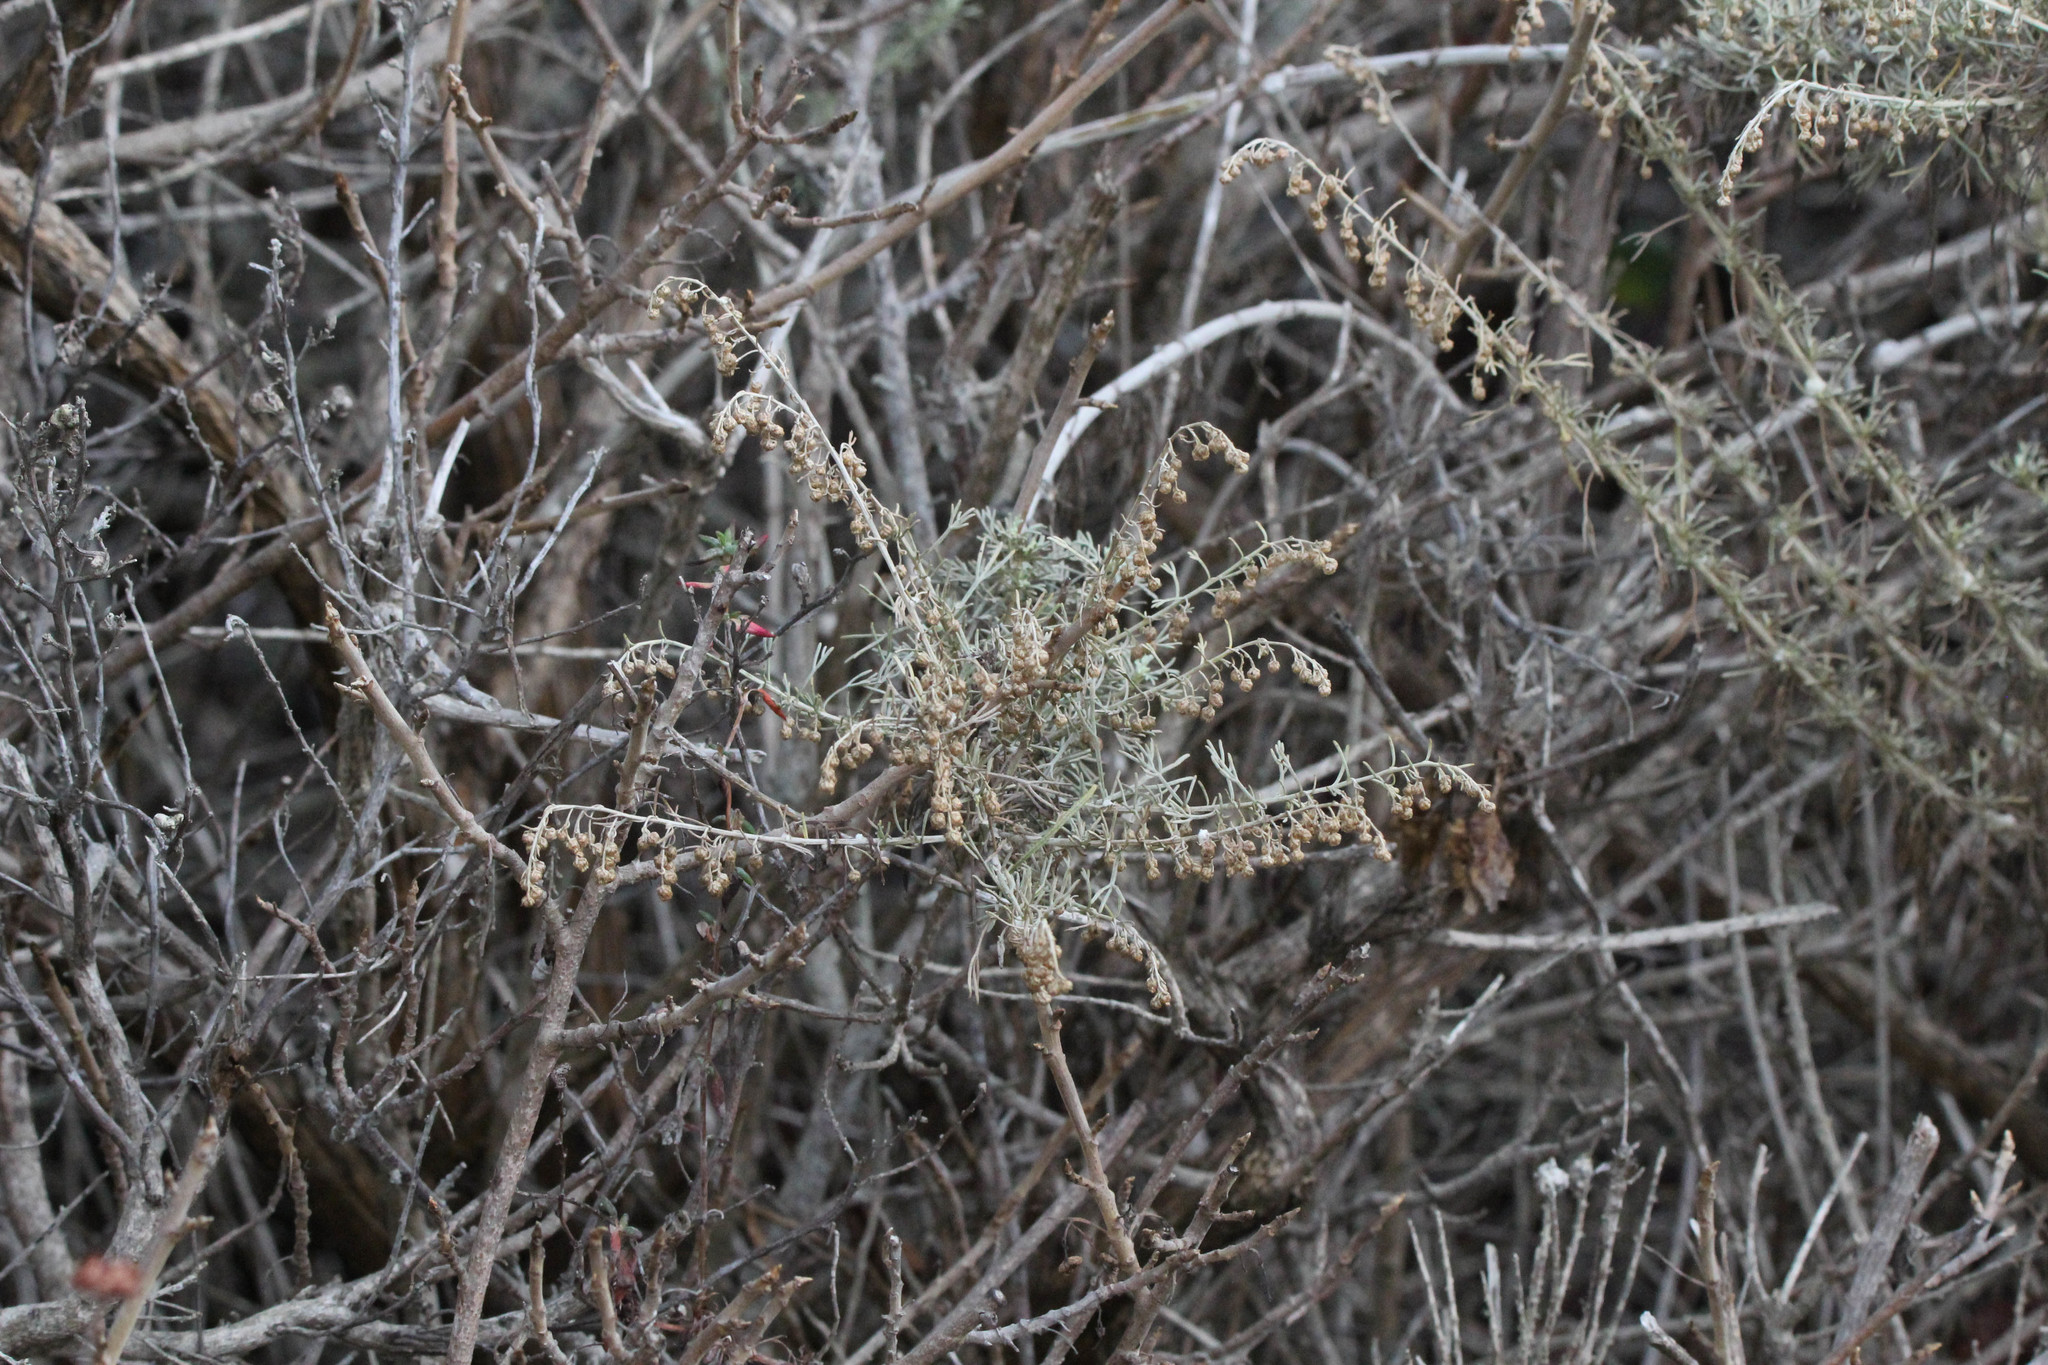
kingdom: Plantae
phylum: Tracheophyta
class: Magnoliopsida
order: Asterales
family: Asteraceae
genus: Artemisia
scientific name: Artemisia californica
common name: California sagebrush
